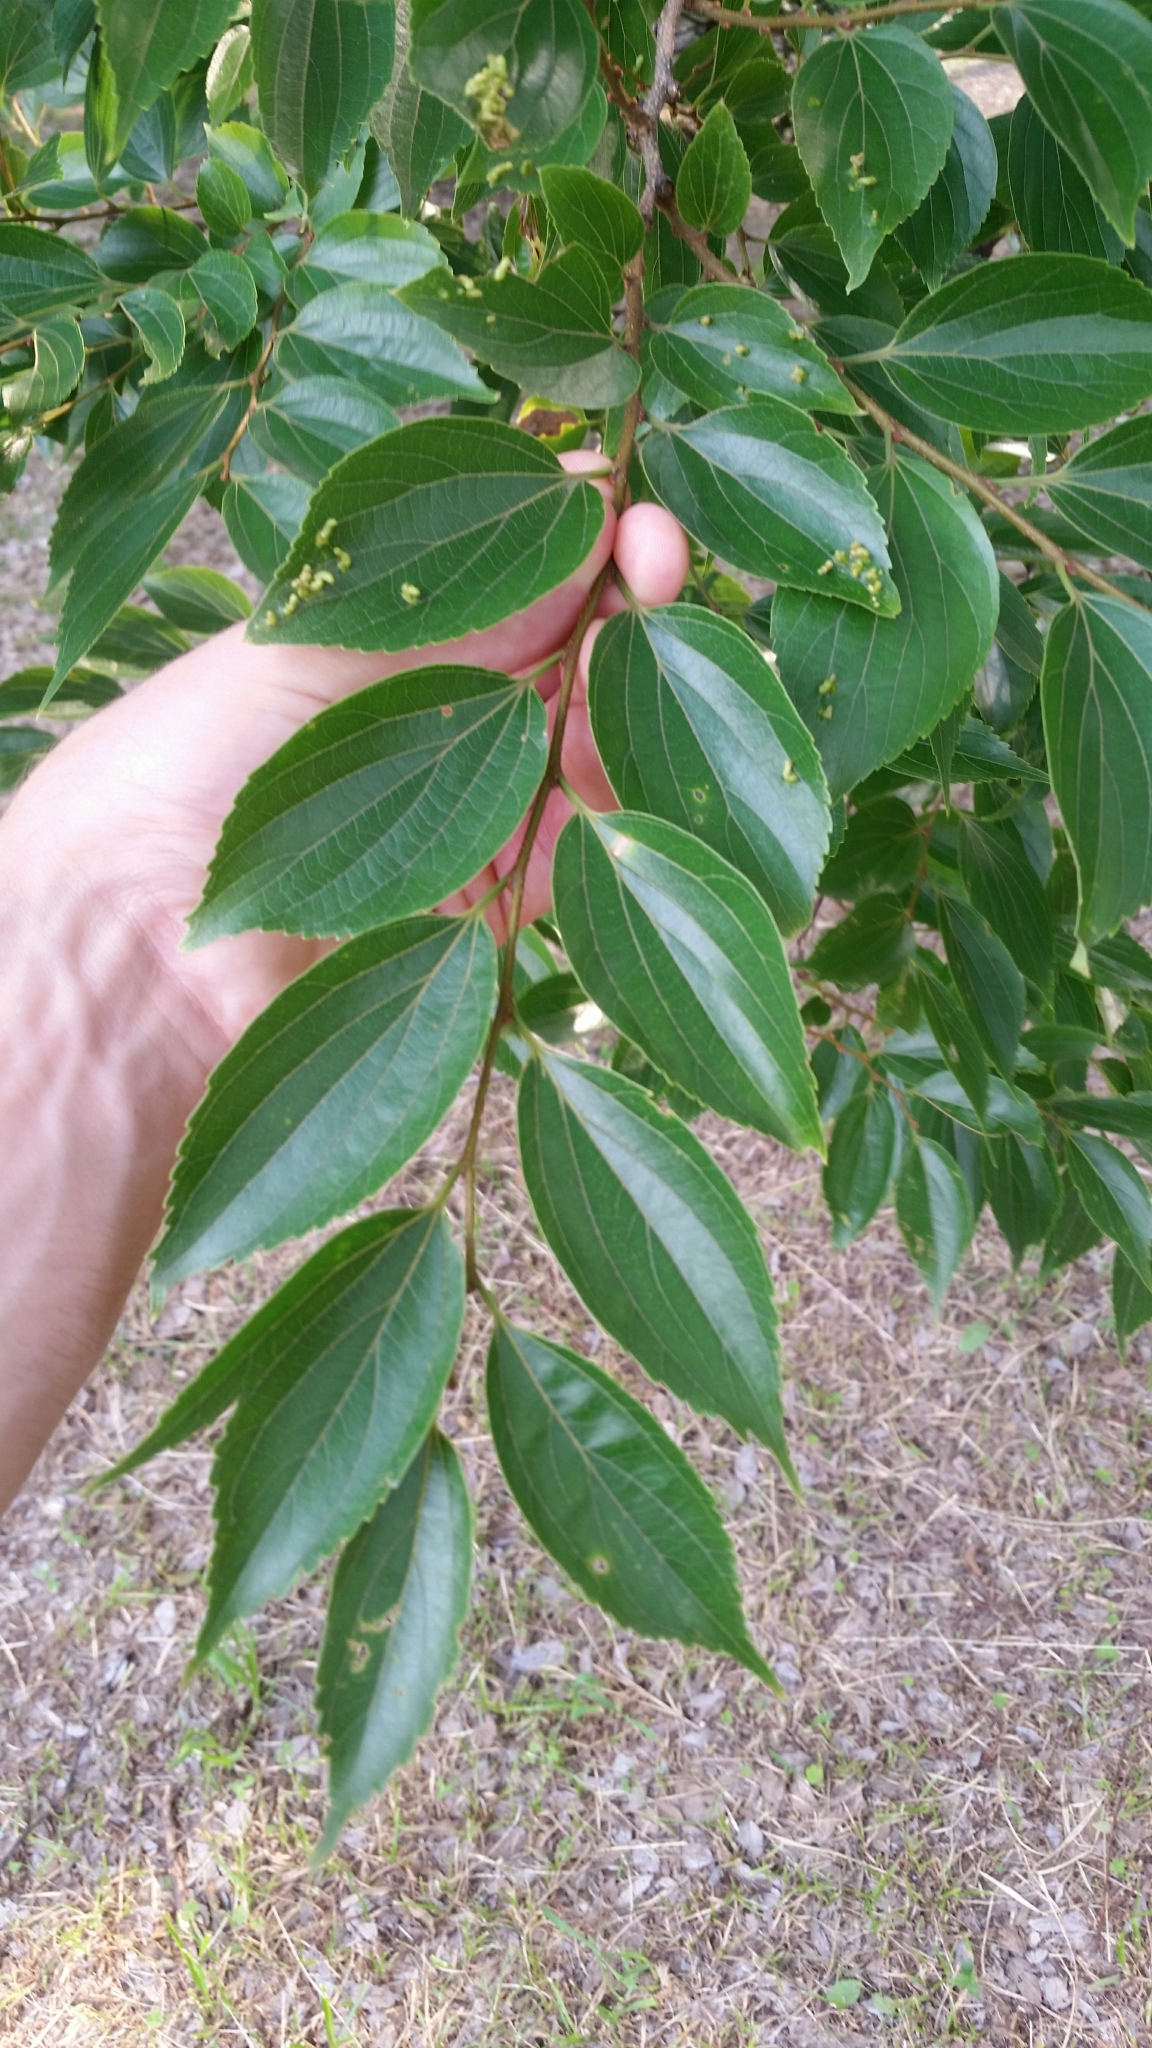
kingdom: Plantae
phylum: Tracheophyta
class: Magnoliopsida
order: Rosales
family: Cannabaceae
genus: Celtis
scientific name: Celtis sinensis
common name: Chinese hackberry
